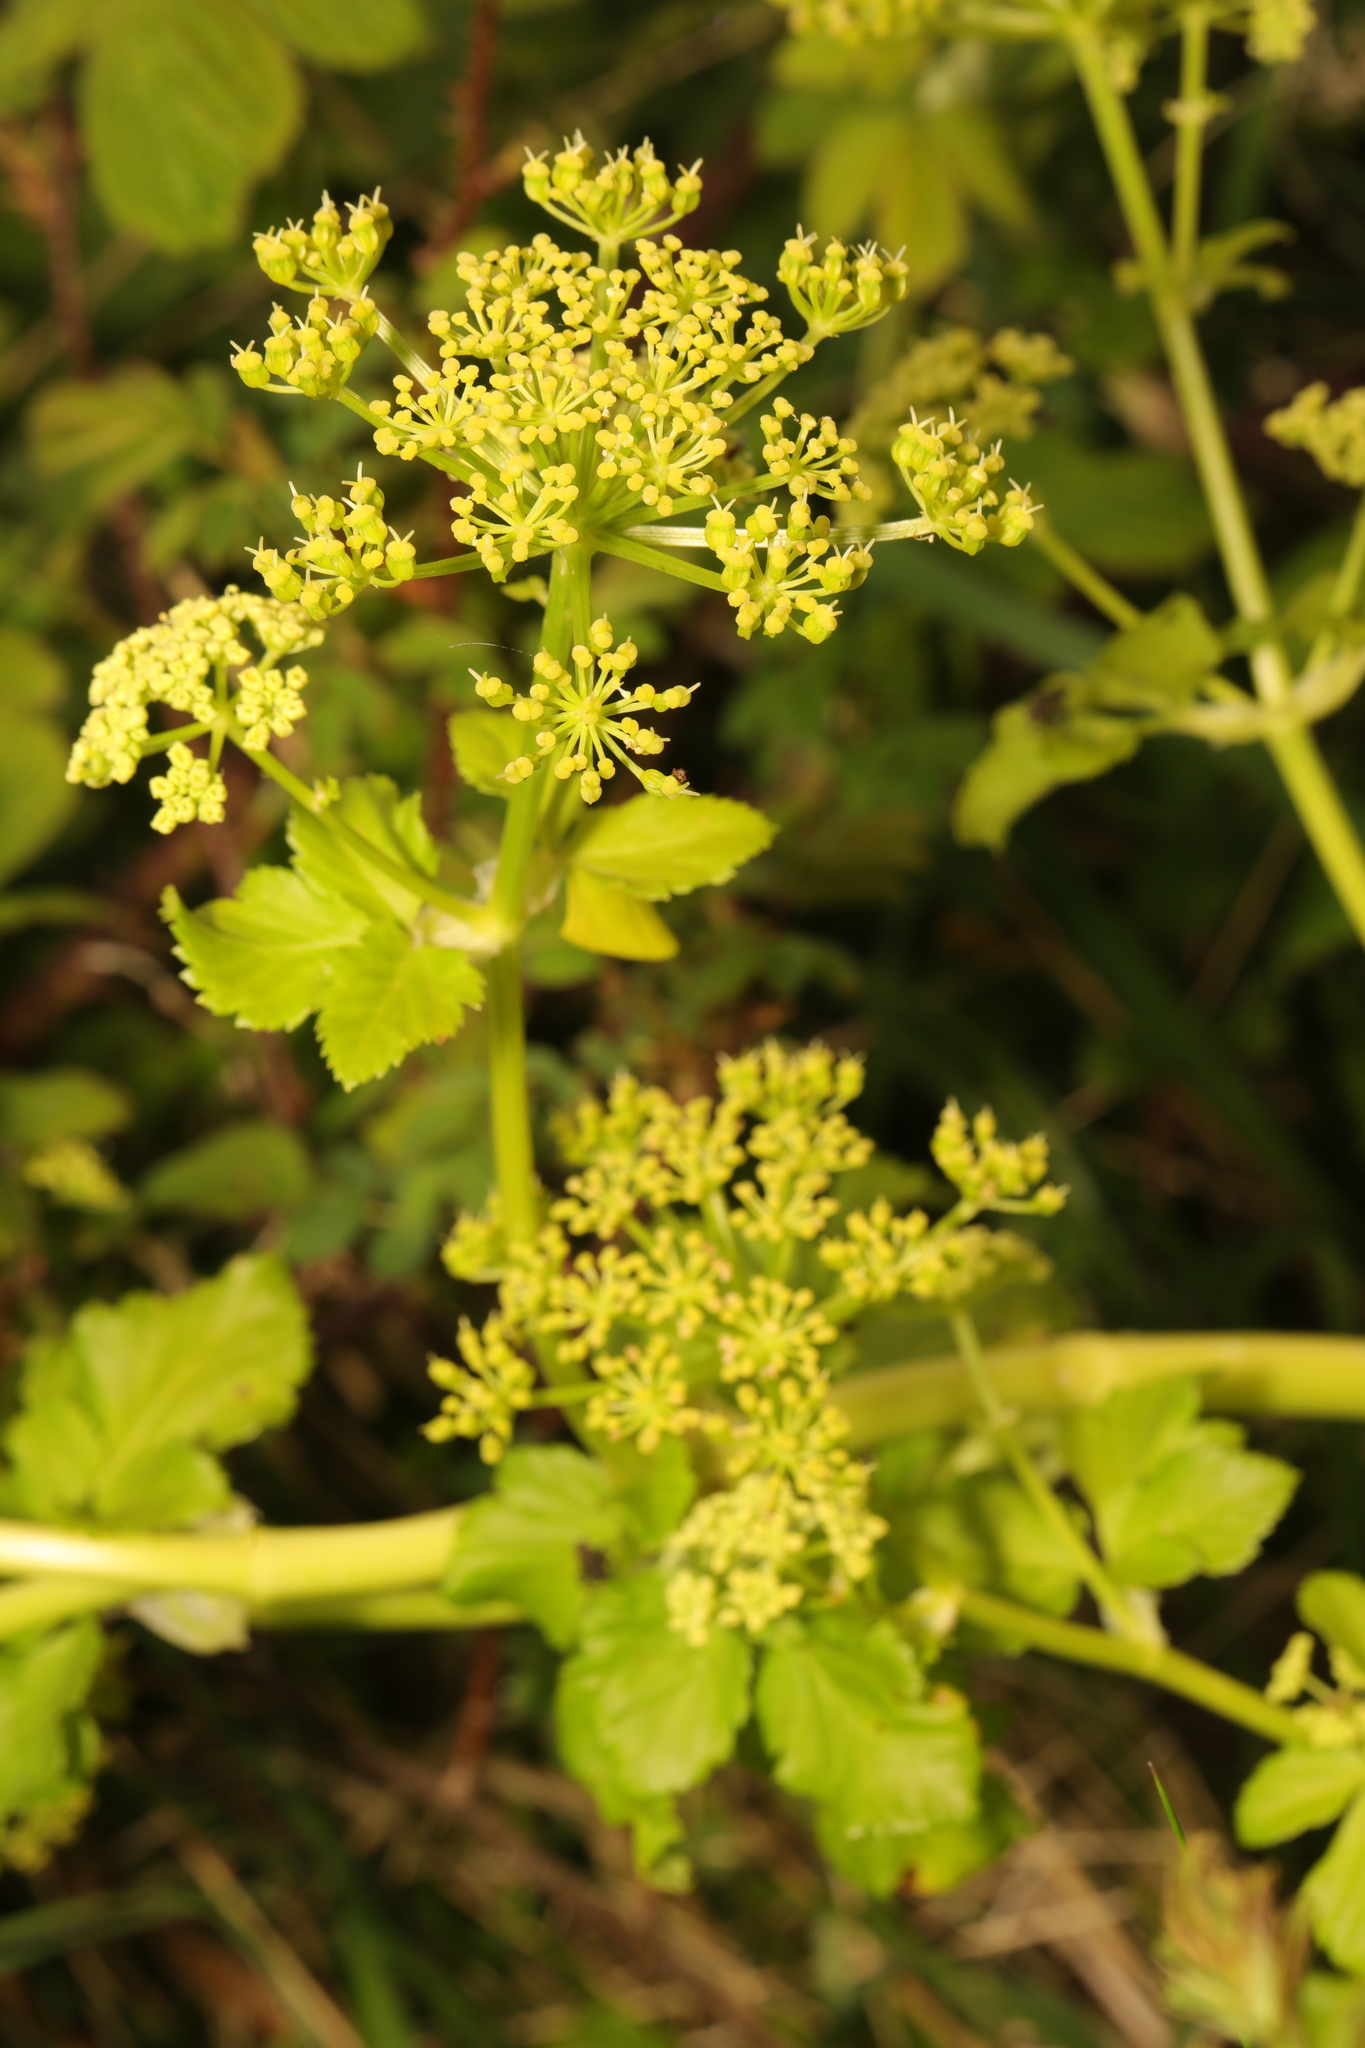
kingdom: Plantae
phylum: Tracheophyta
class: Magnoliopsida
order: Apiales
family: Apiaceae
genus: Smyrnium
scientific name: Smyrnium olusatrum
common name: Alexanders
